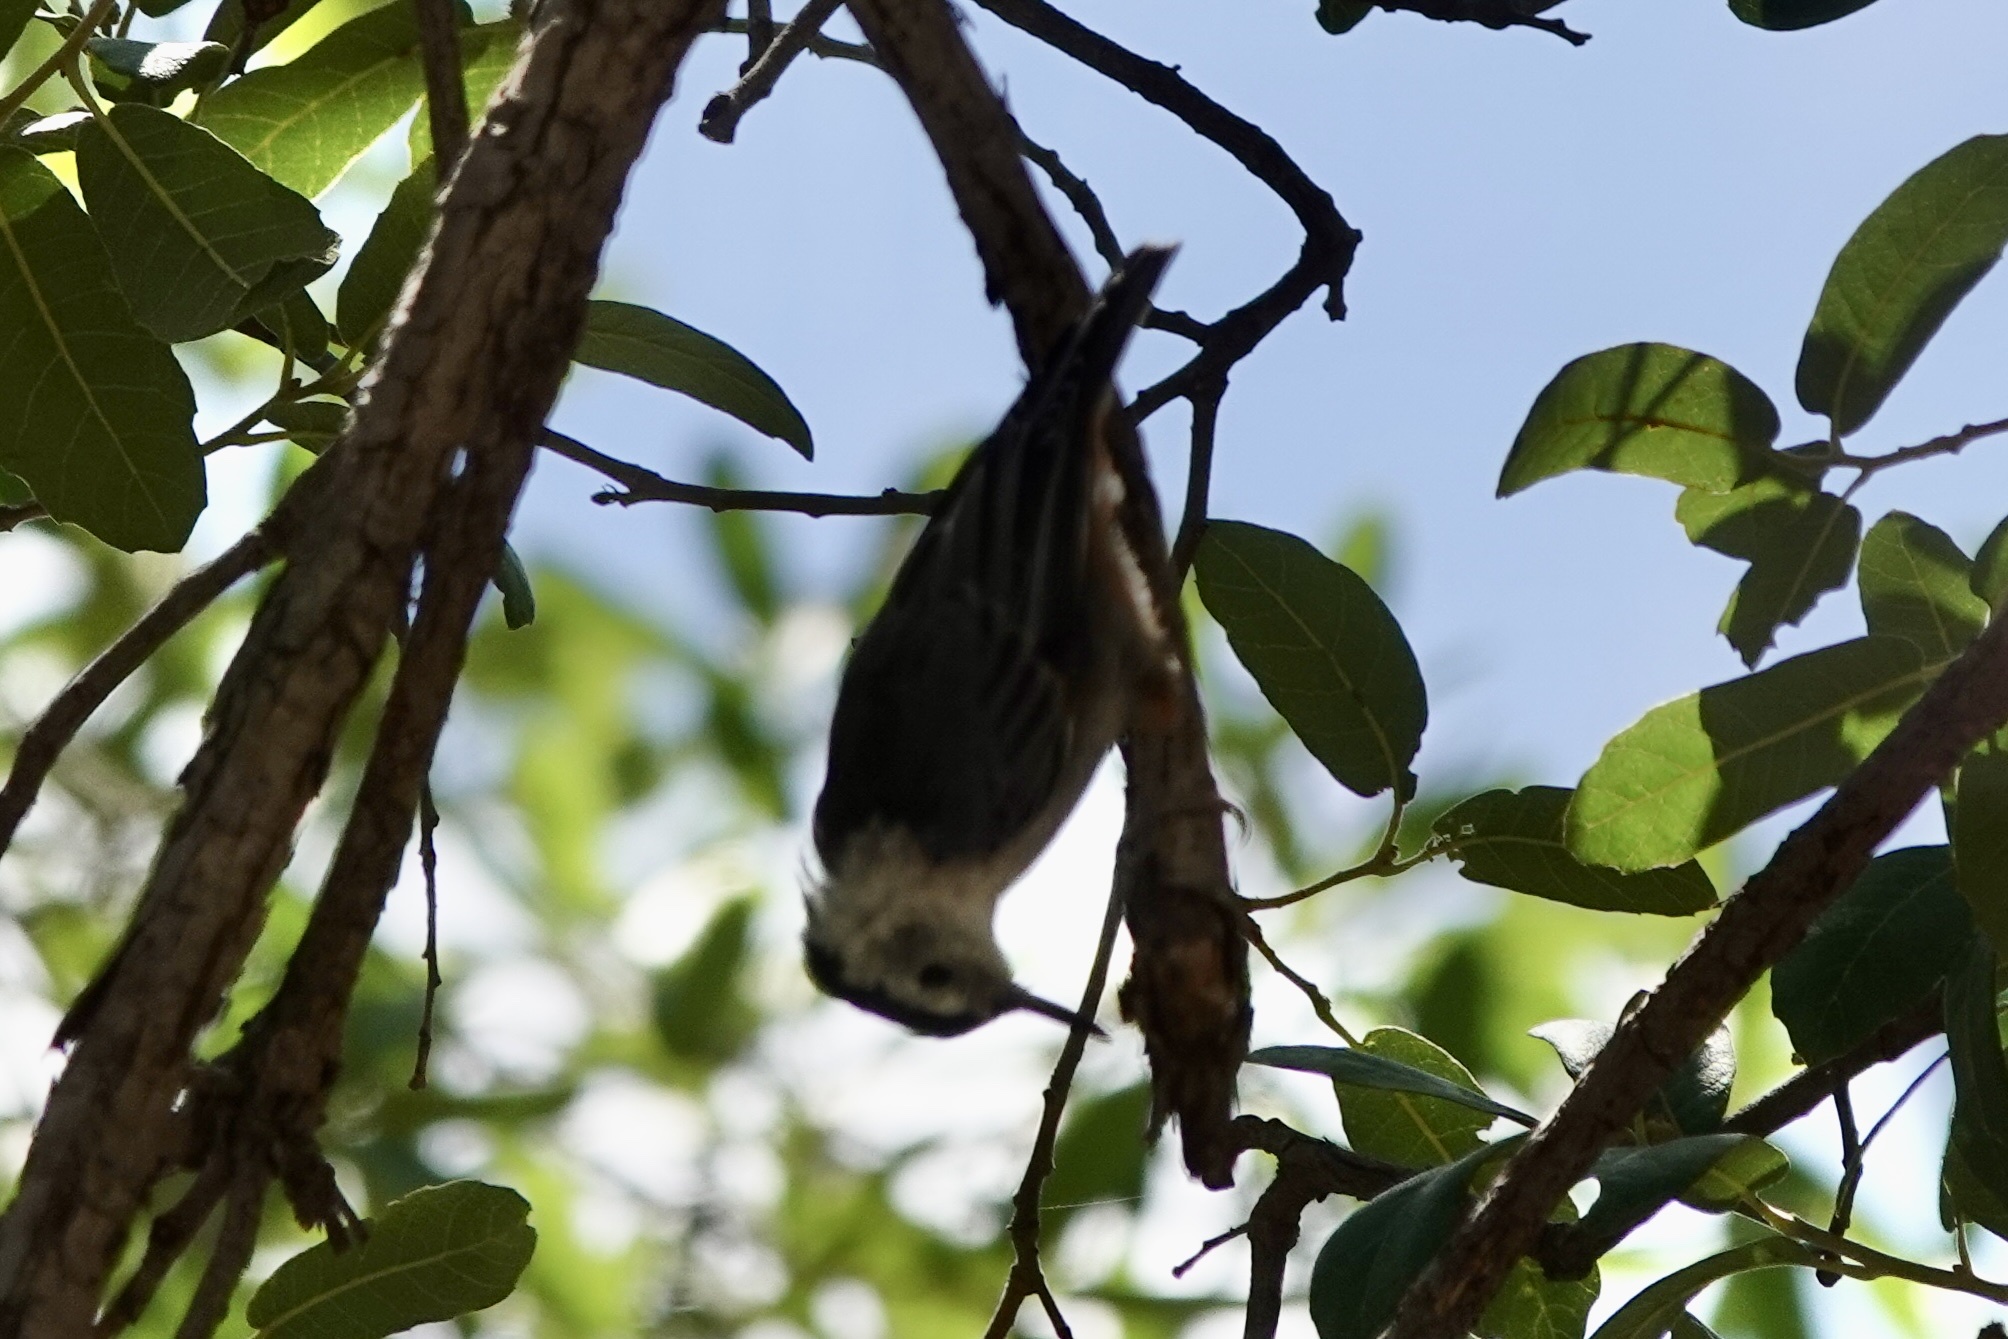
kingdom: Animalia
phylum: Chordata
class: Aves
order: Passeriformes
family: Sittidae
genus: Sitta
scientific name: Sitta carolinensis
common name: White-breasted nuthatch
